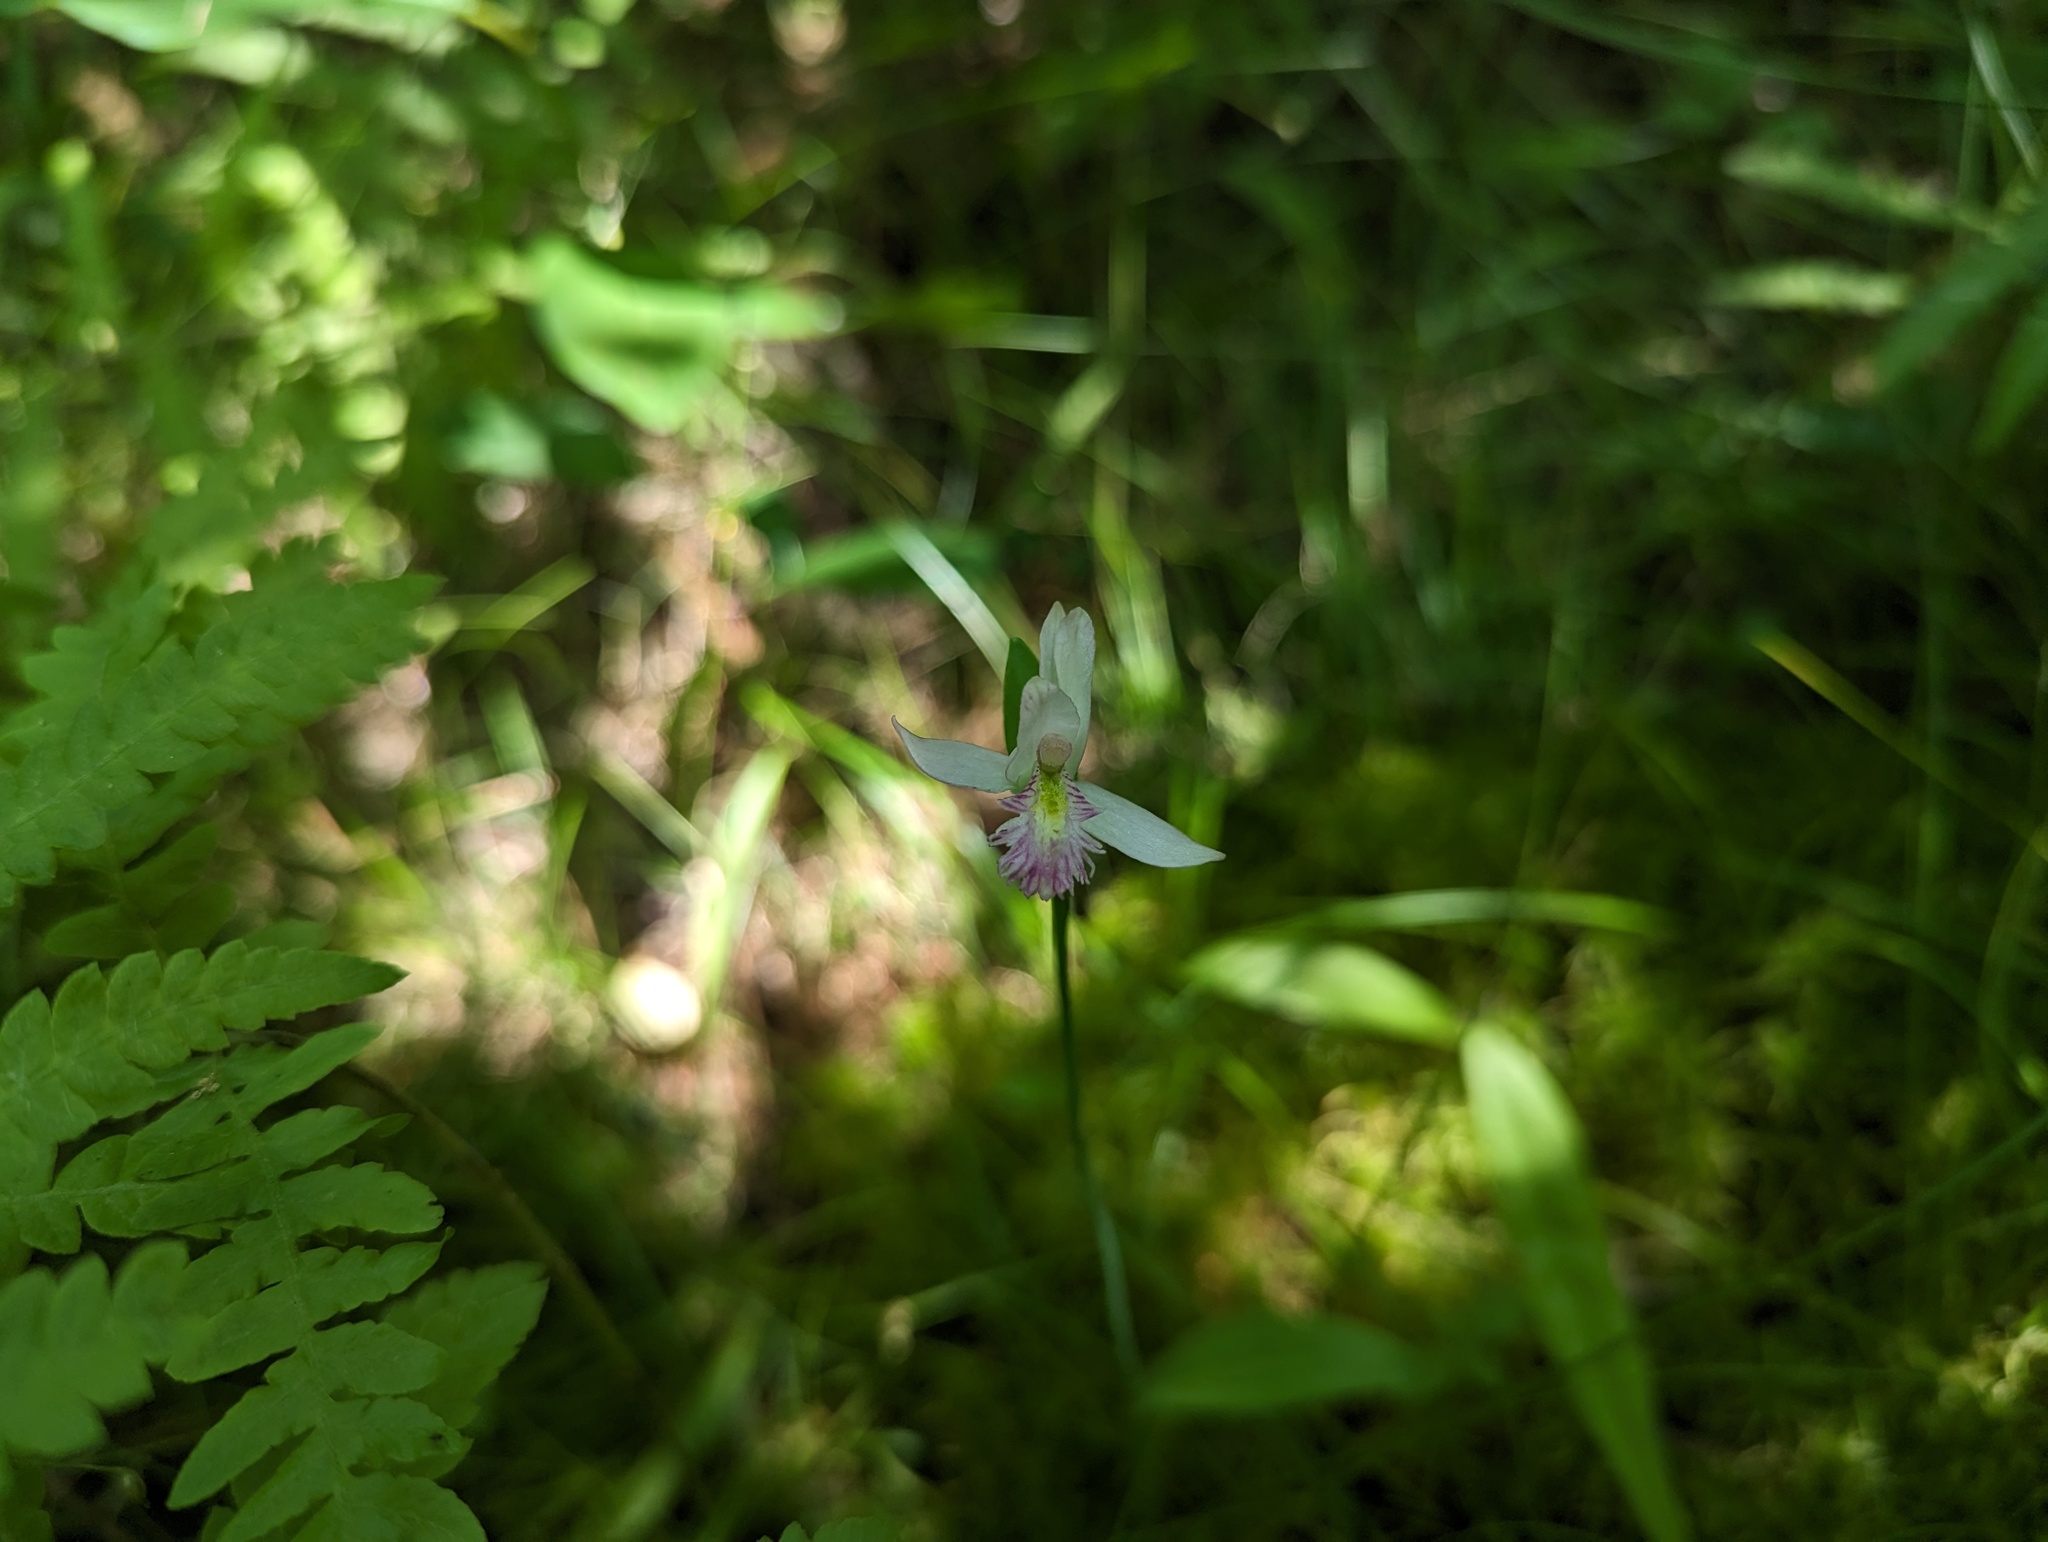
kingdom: Plantae
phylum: Tracheophyta
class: Liliopsida
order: Asparagales
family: Orchidaceae
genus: Pogonia
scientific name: Pogonia ophioglossoides
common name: Rose pogonia
